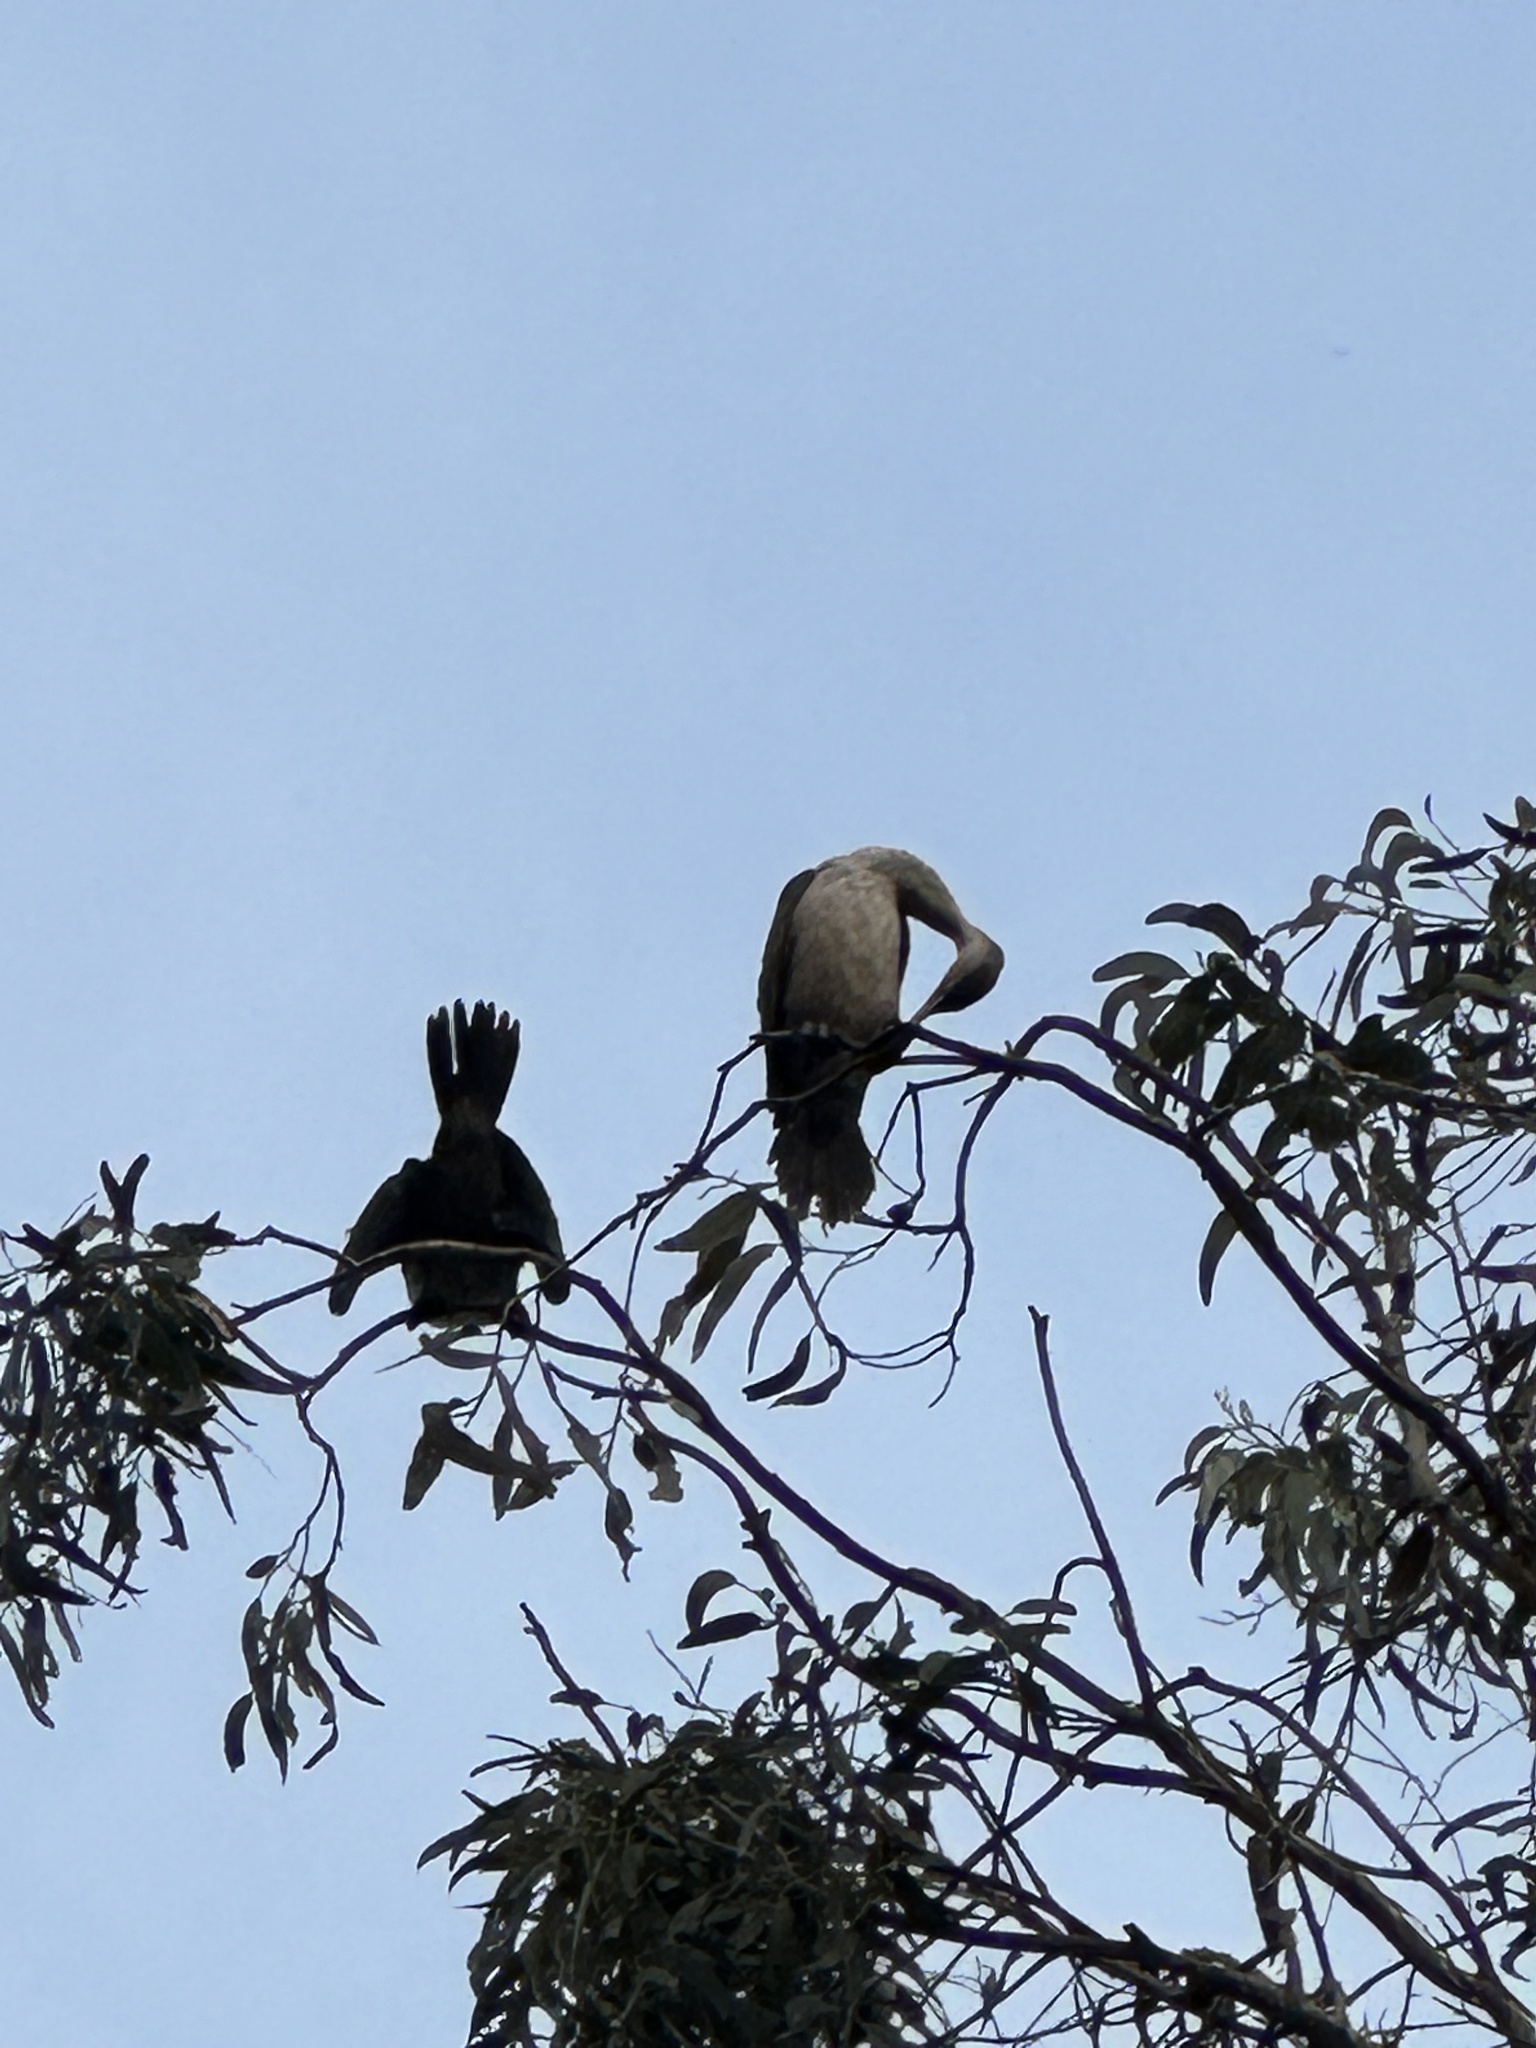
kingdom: Animalia
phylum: Chordata
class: Aves
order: Suliformes
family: Phalacrocoracidae
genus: Phalacrocorax
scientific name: Phalacrocorax auritus
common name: Double-crested cormorant
